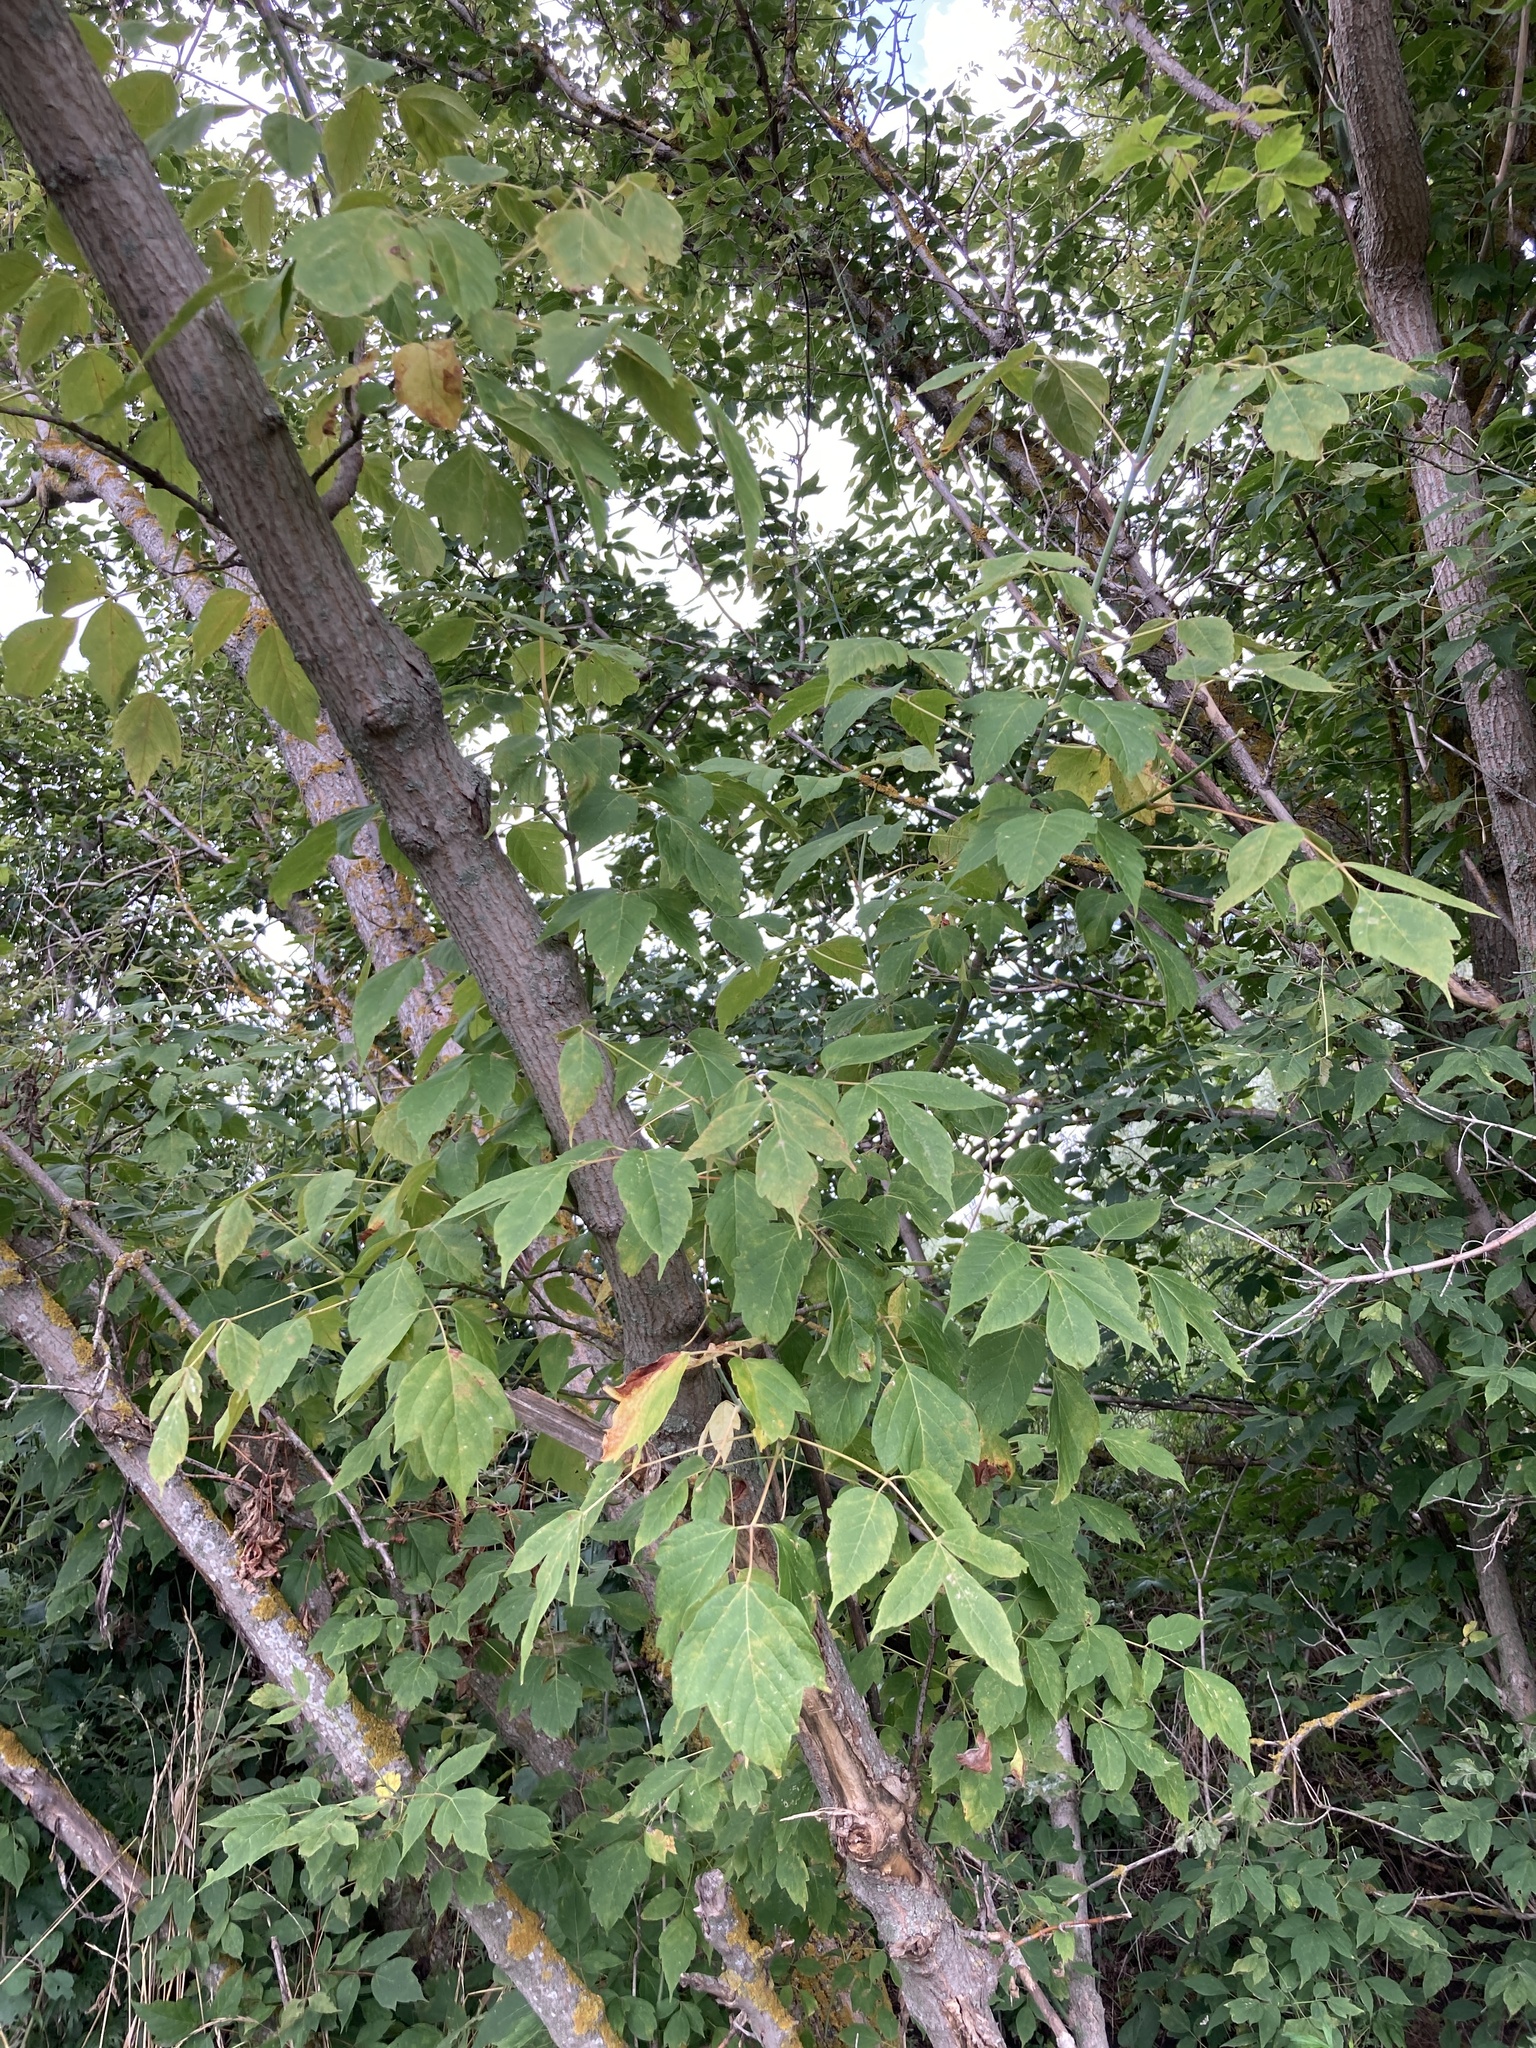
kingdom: Plantae
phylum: Tracheophyta
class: Magnoliopsida
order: Sapindales
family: Sapindaceae
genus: Acer
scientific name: Acer negundo
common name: Ashleaf maple
